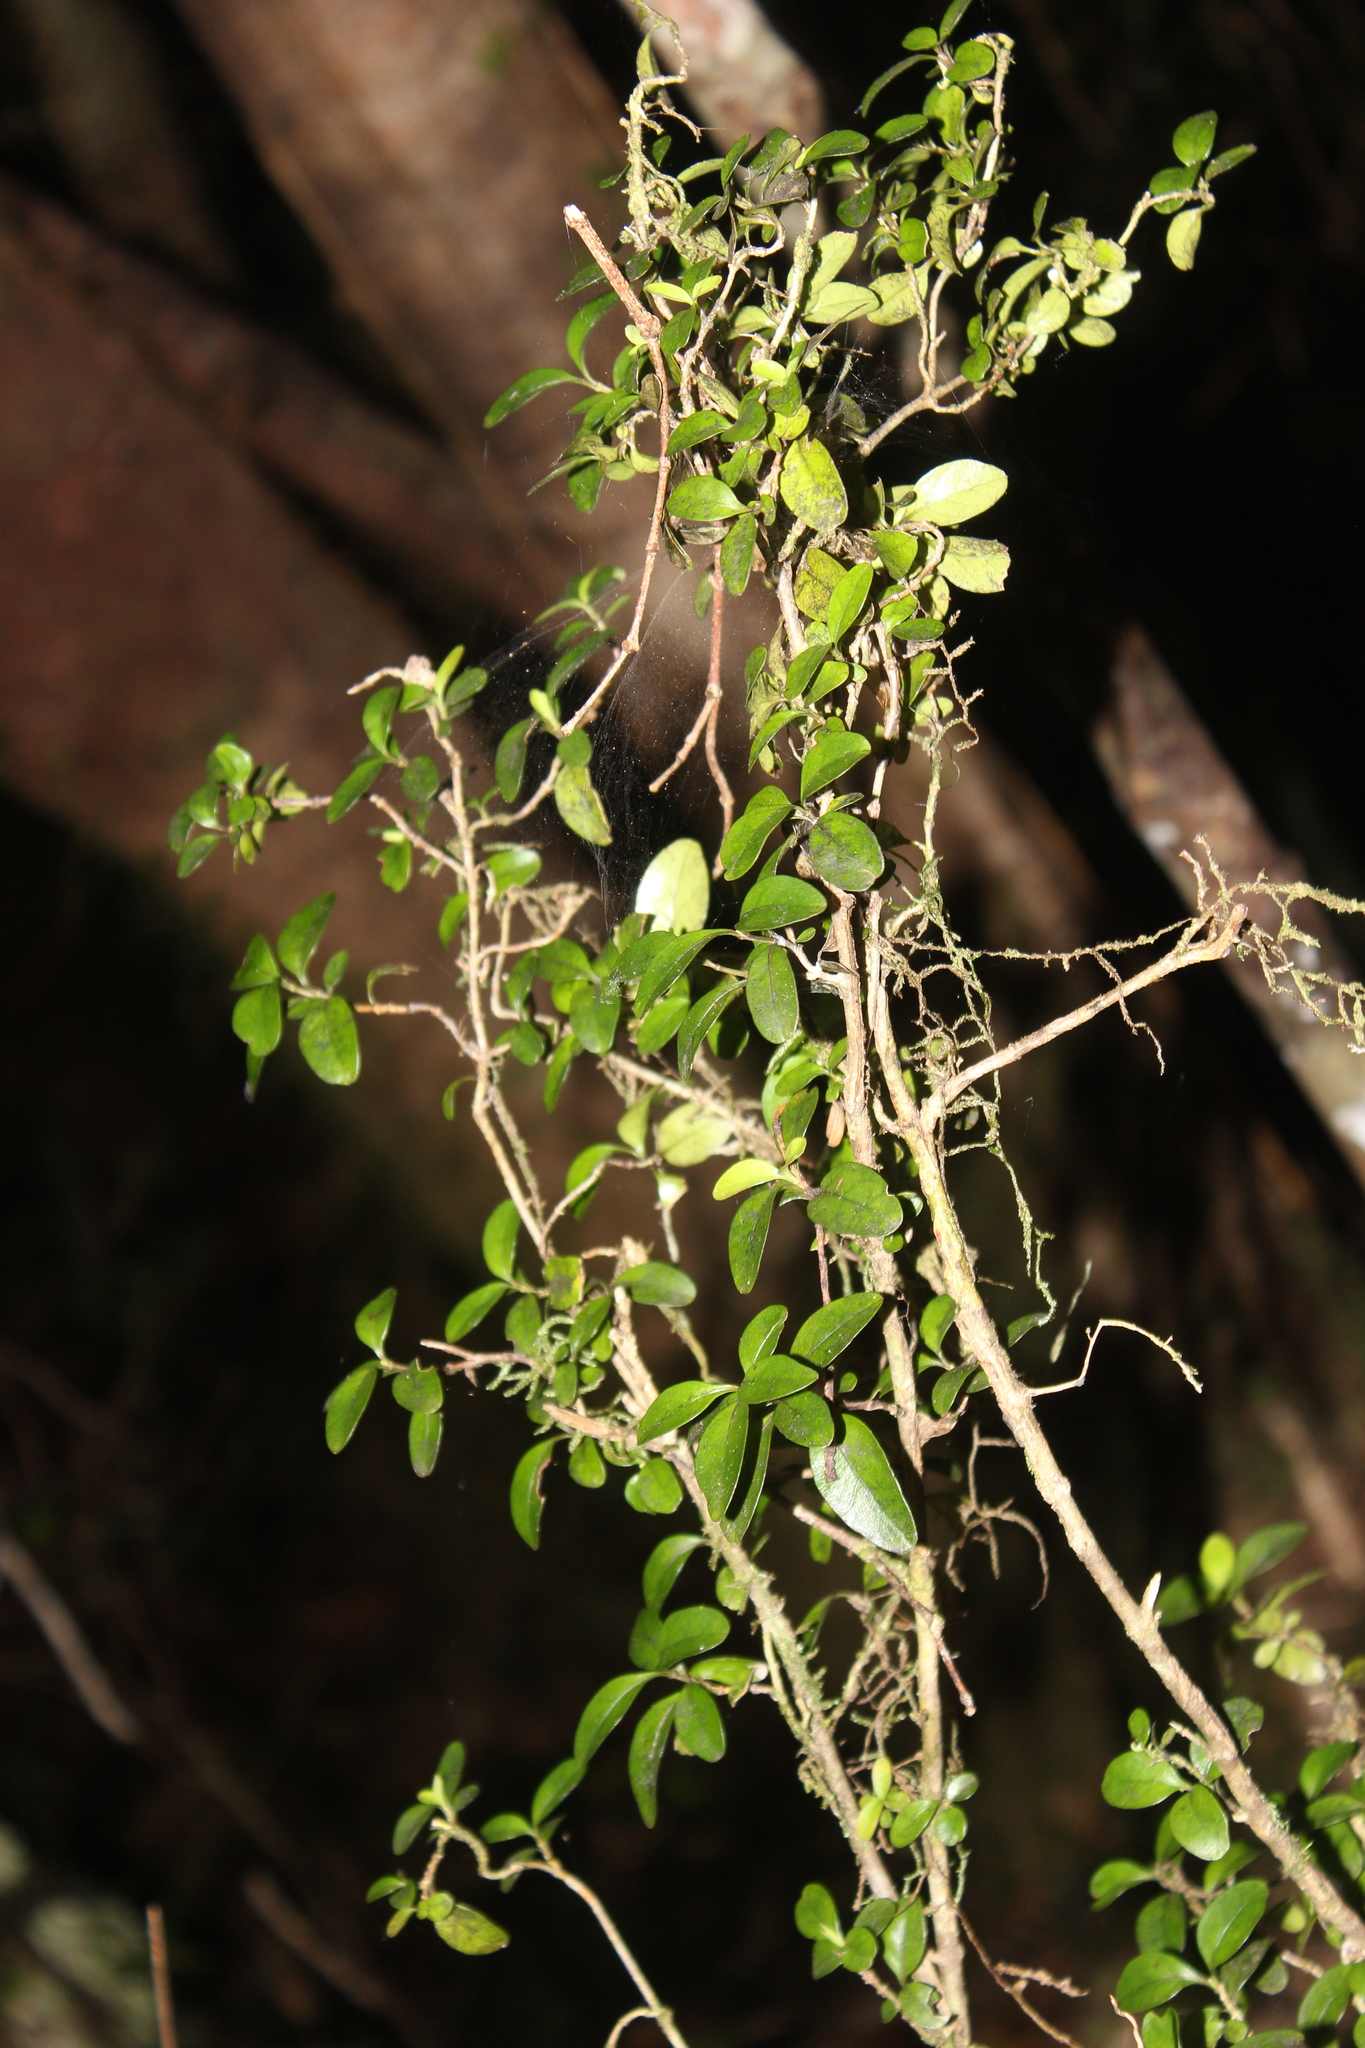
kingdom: Plantae
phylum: Tracheophyta
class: Magnoliopsida
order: Gentianales
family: Rubiaceae
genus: Coprosma
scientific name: Coprosma foetidissima
